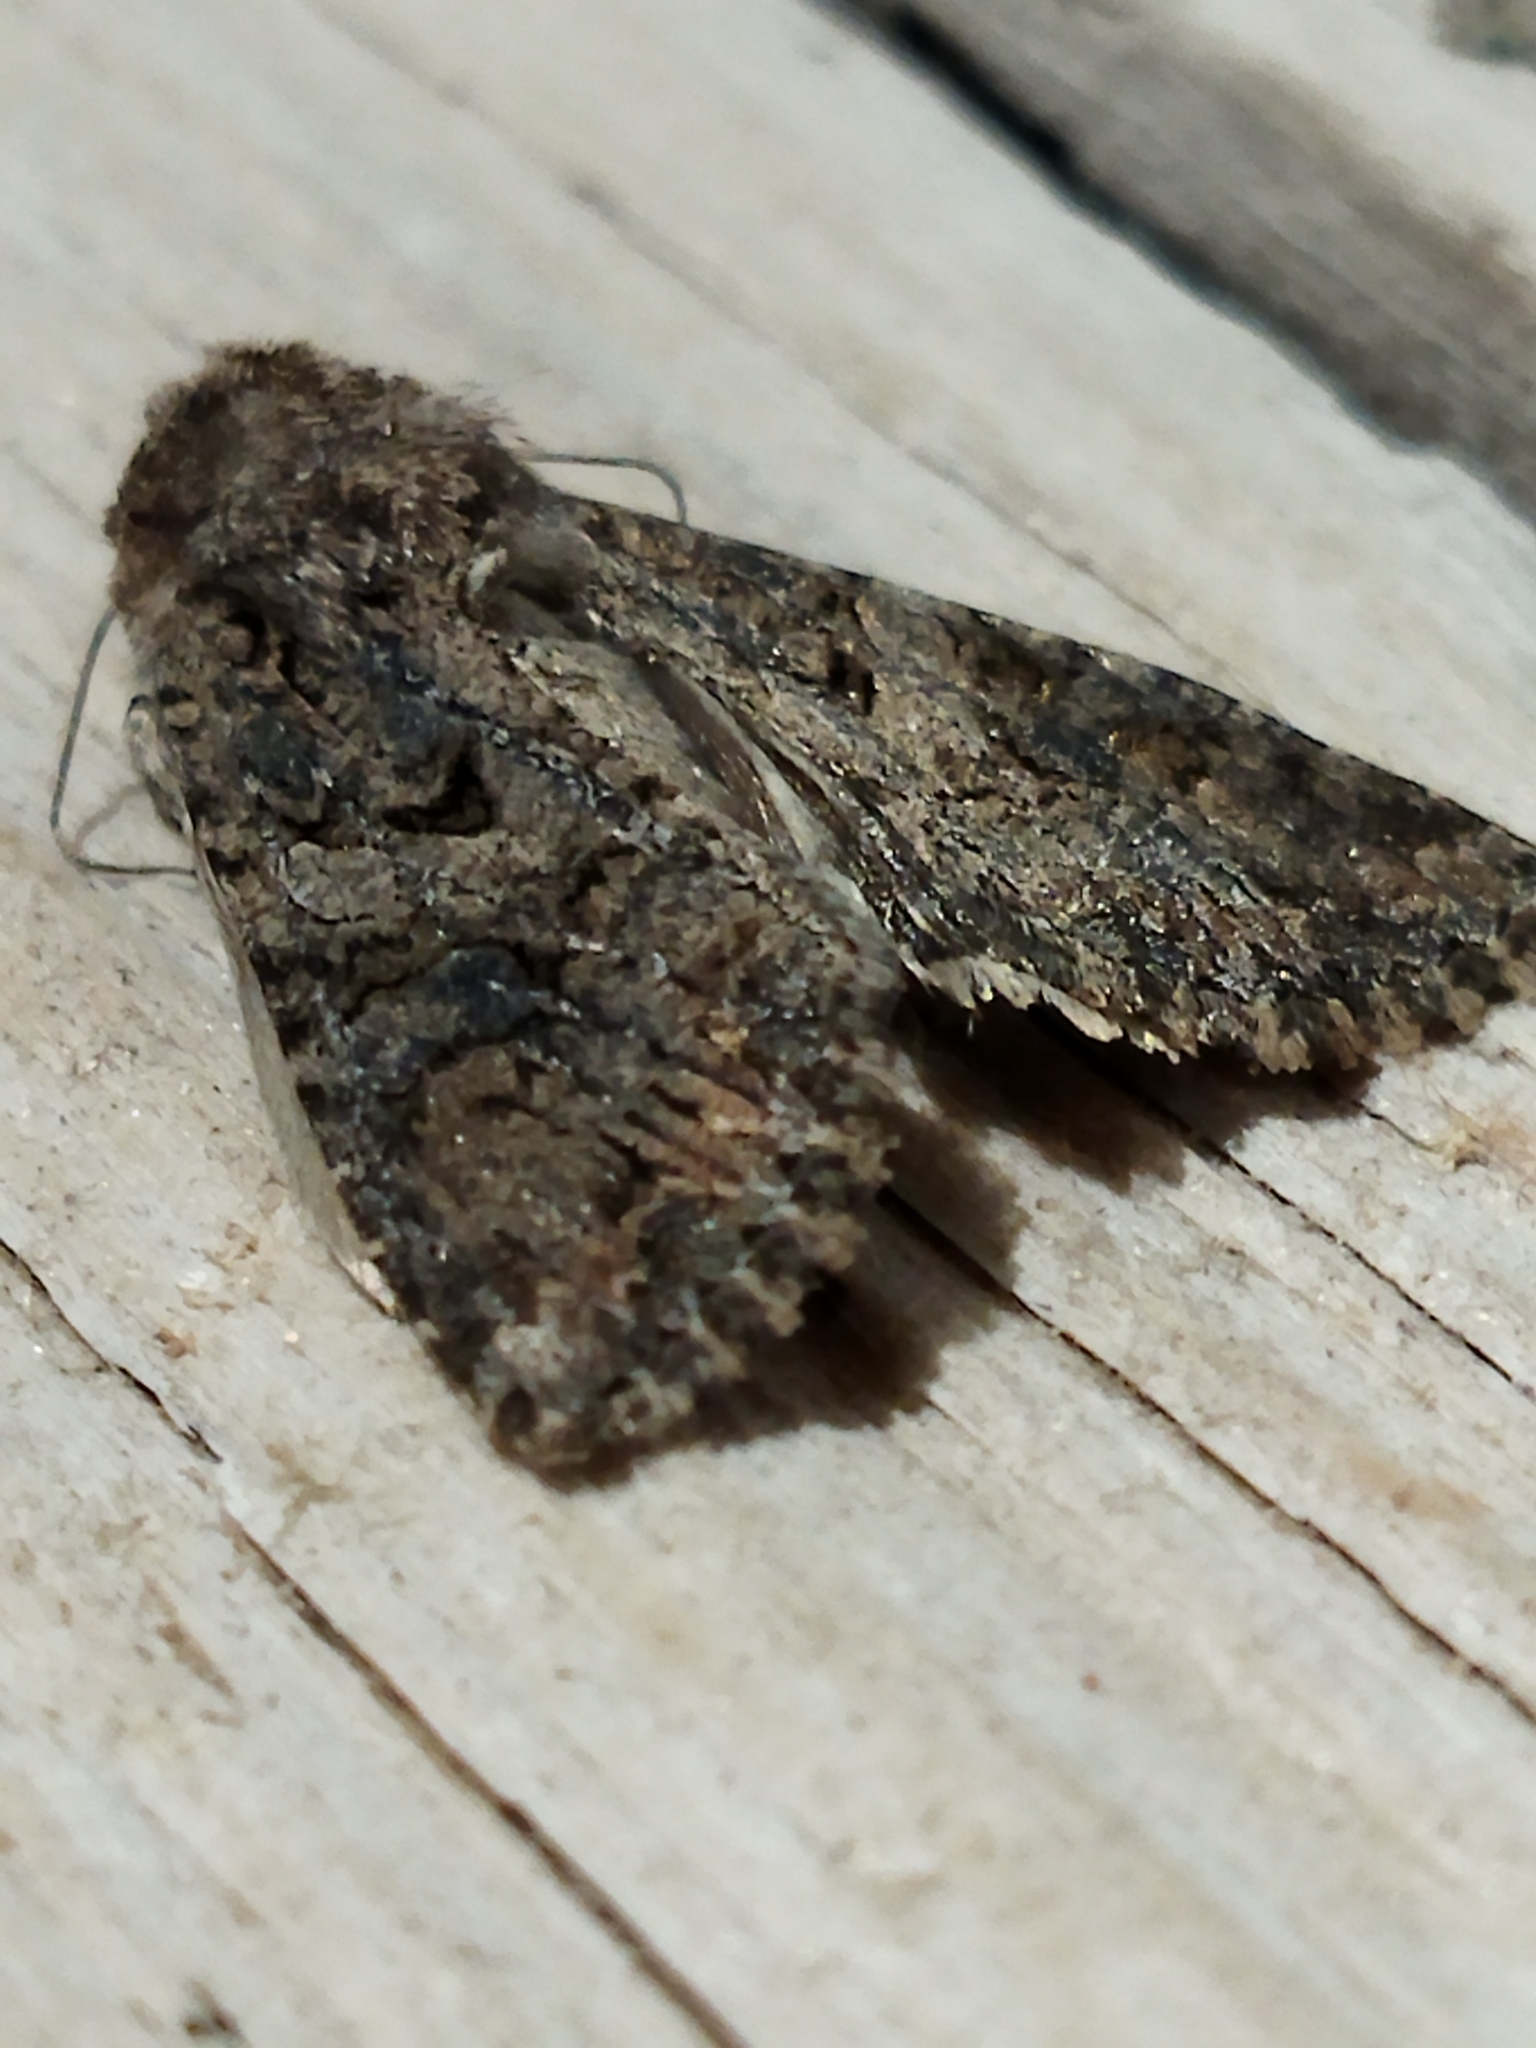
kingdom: Animalia
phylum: Arthropoda
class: Insecta
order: Lepidoptera
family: Noctuidae
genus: Anarta
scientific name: Anarta trifolii
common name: Clover cutworm moth
